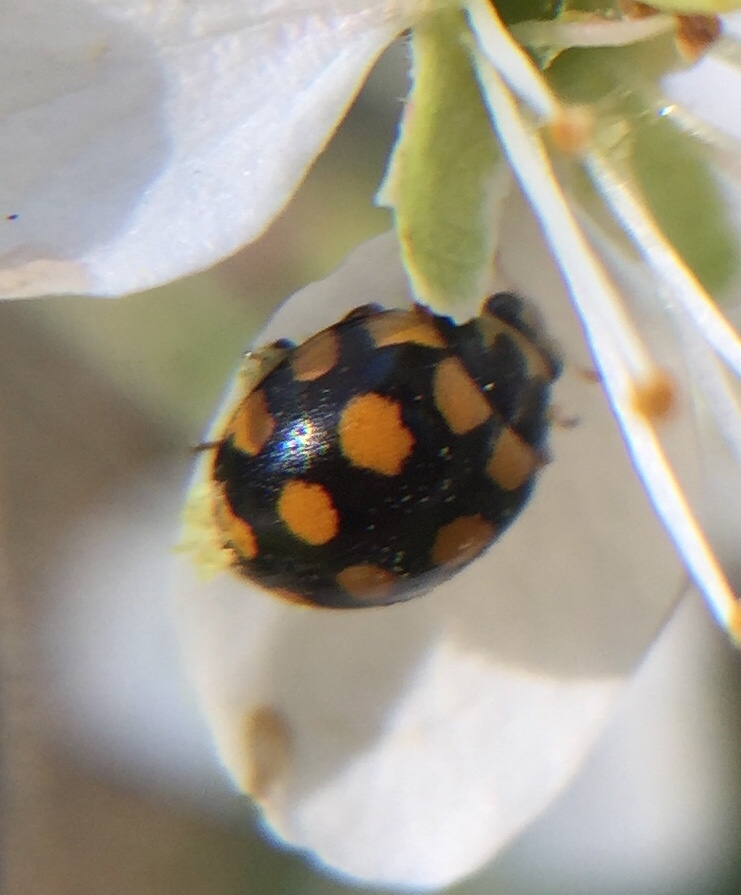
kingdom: Animalia
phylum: Arthropoda
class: Insecta
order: Coleoptera
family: Coccinellidae
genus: Coccinula
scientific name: Coccinula quatuordecimpustulata
